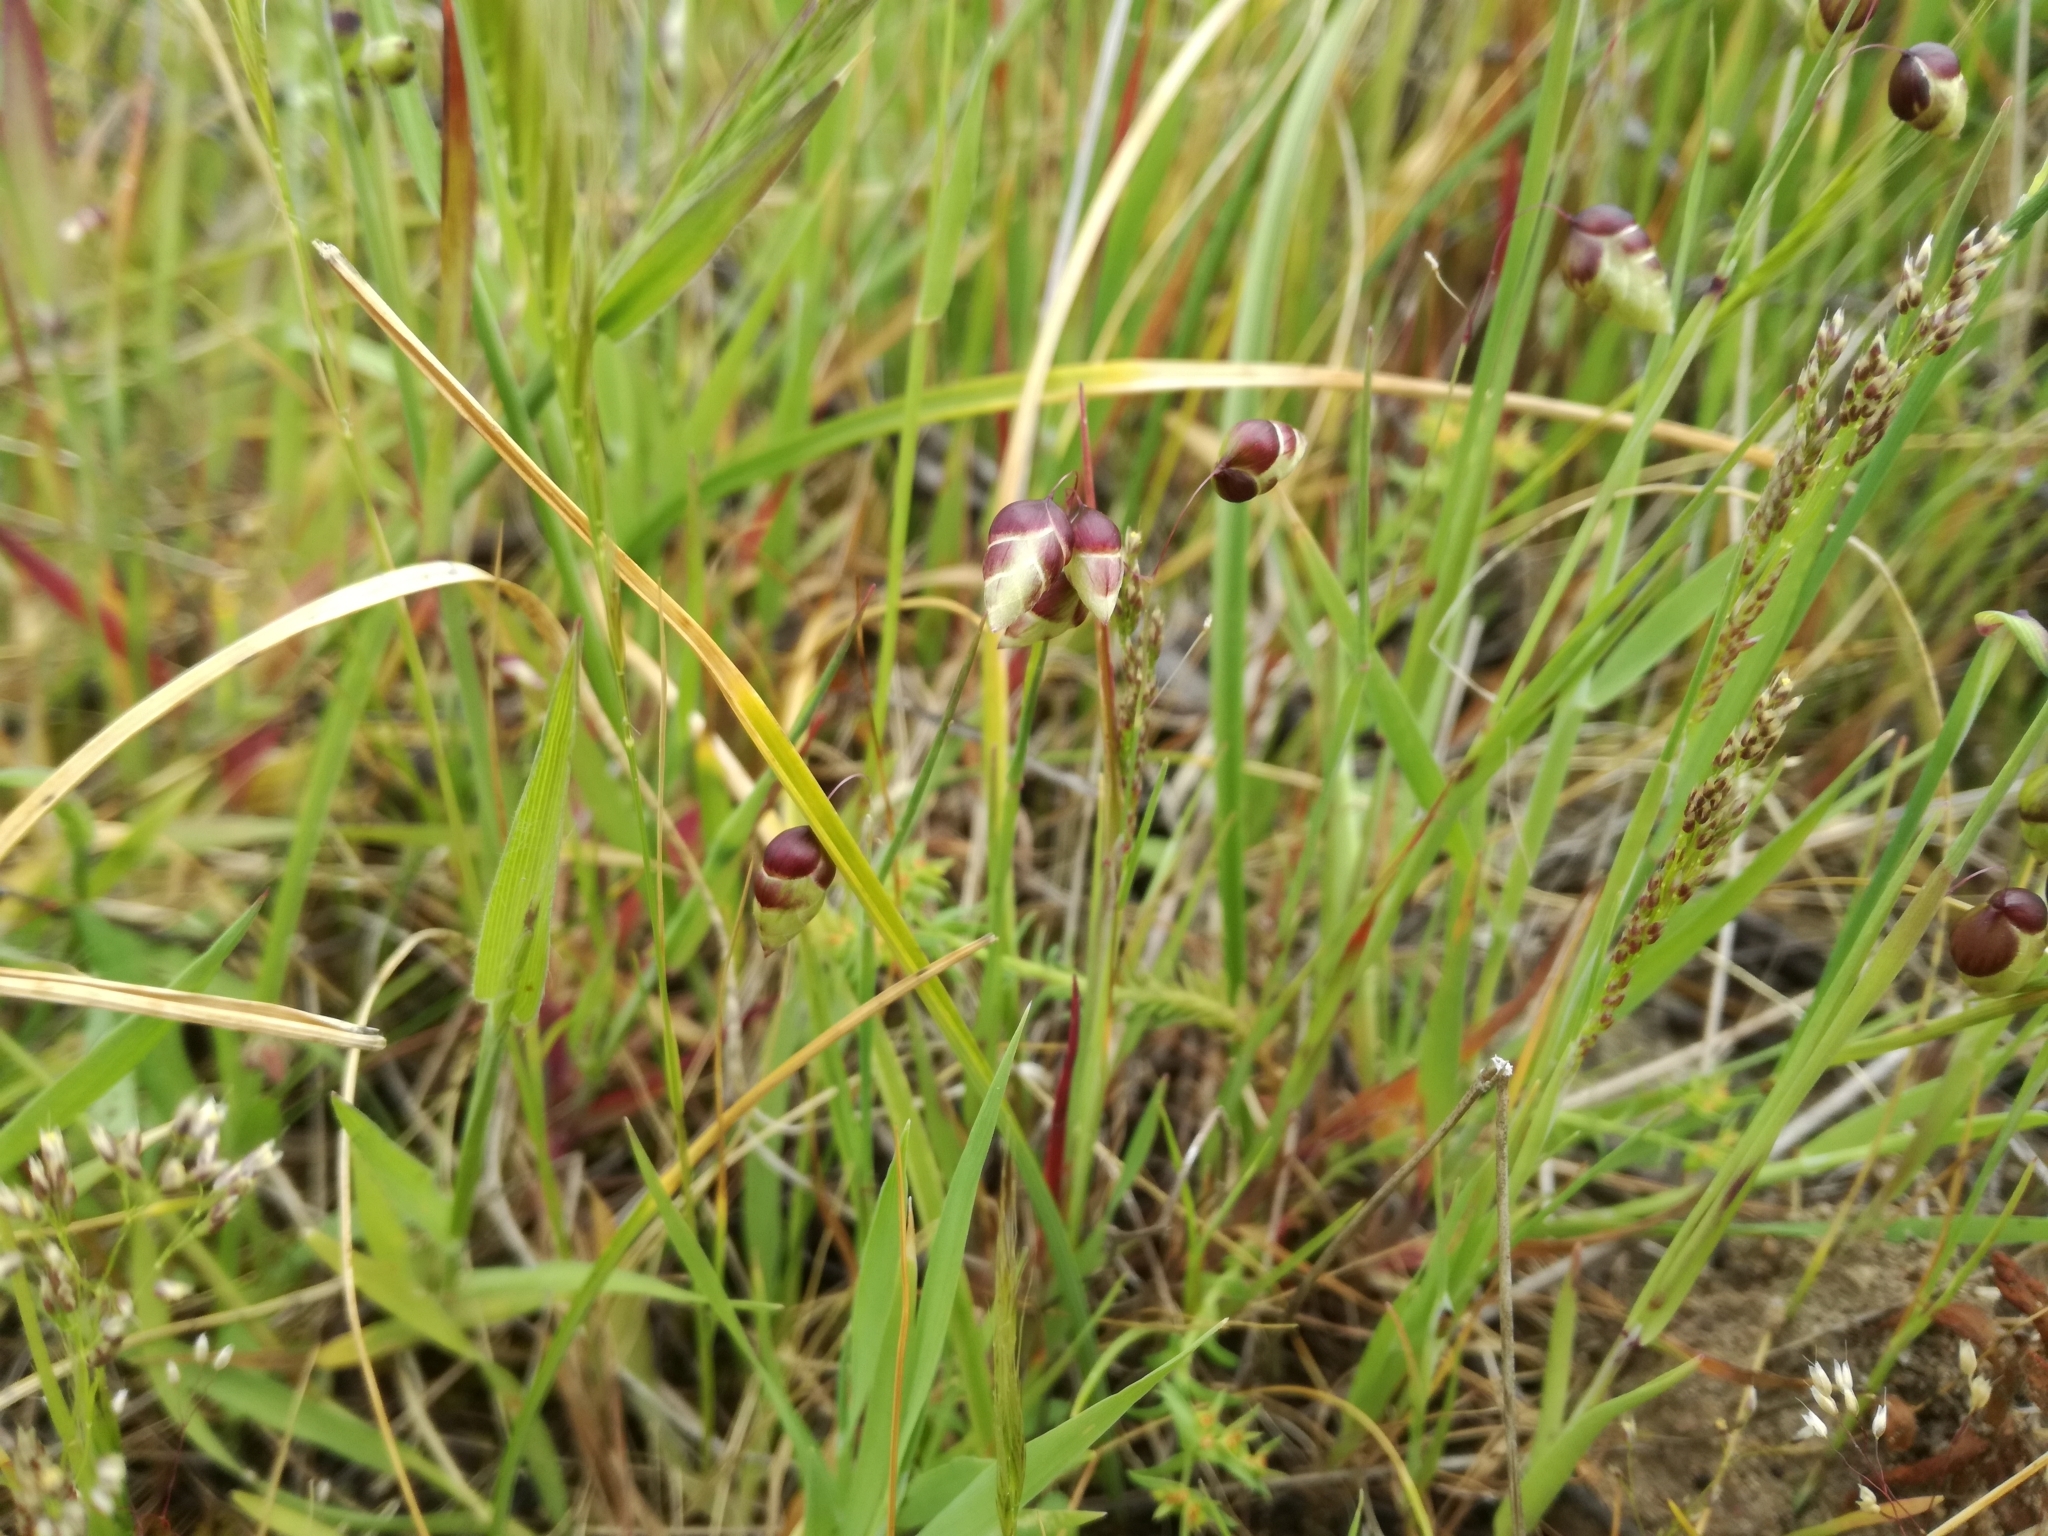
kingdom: Plantae
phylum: Tracheophyta
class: Liliopsida
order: Poales
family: Poaceae
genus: Briza
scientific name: Briza maxima
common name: Big quakinggrass
